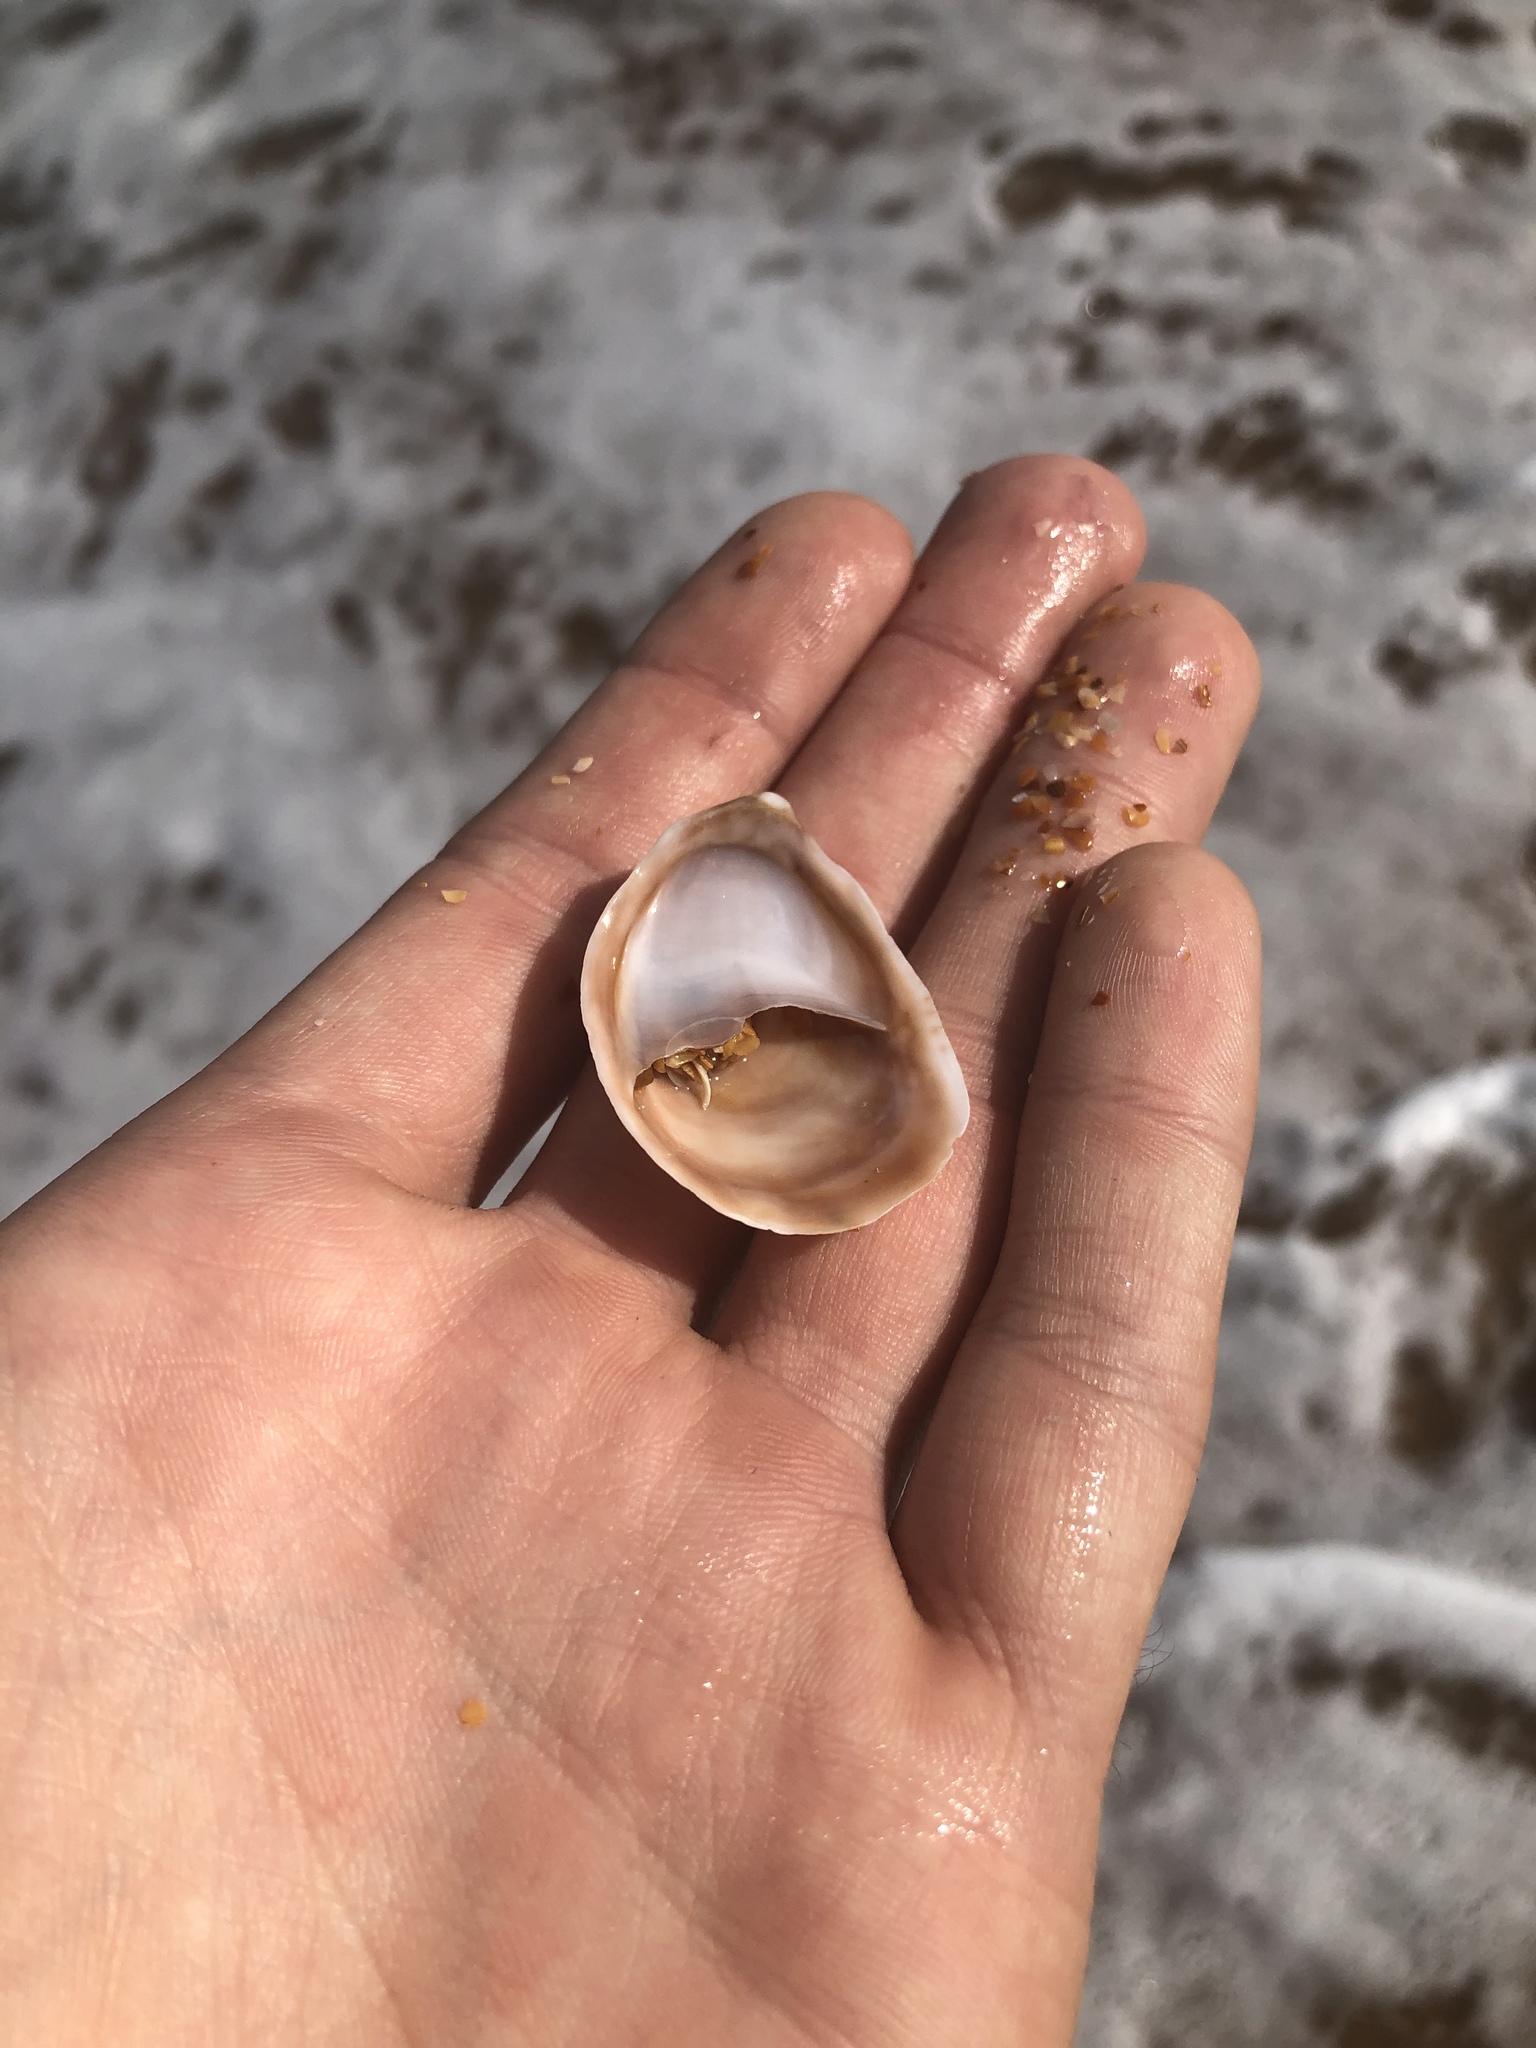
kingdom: Animalia
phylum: Mollusca
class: Gastropoda
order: Littorinimorpha
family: Calyptraeidae
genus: Crepidula
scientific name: Crepidula fornicata
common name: Slipper limpet
